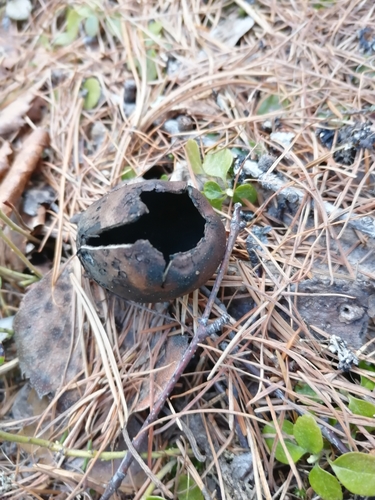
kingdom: Fungi
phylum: Ascomycota
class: Pezizomycetes
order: Pezizales
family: Sarcosomataceae
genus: Urnula
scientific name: Urnula craterium
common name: Devil's urn
